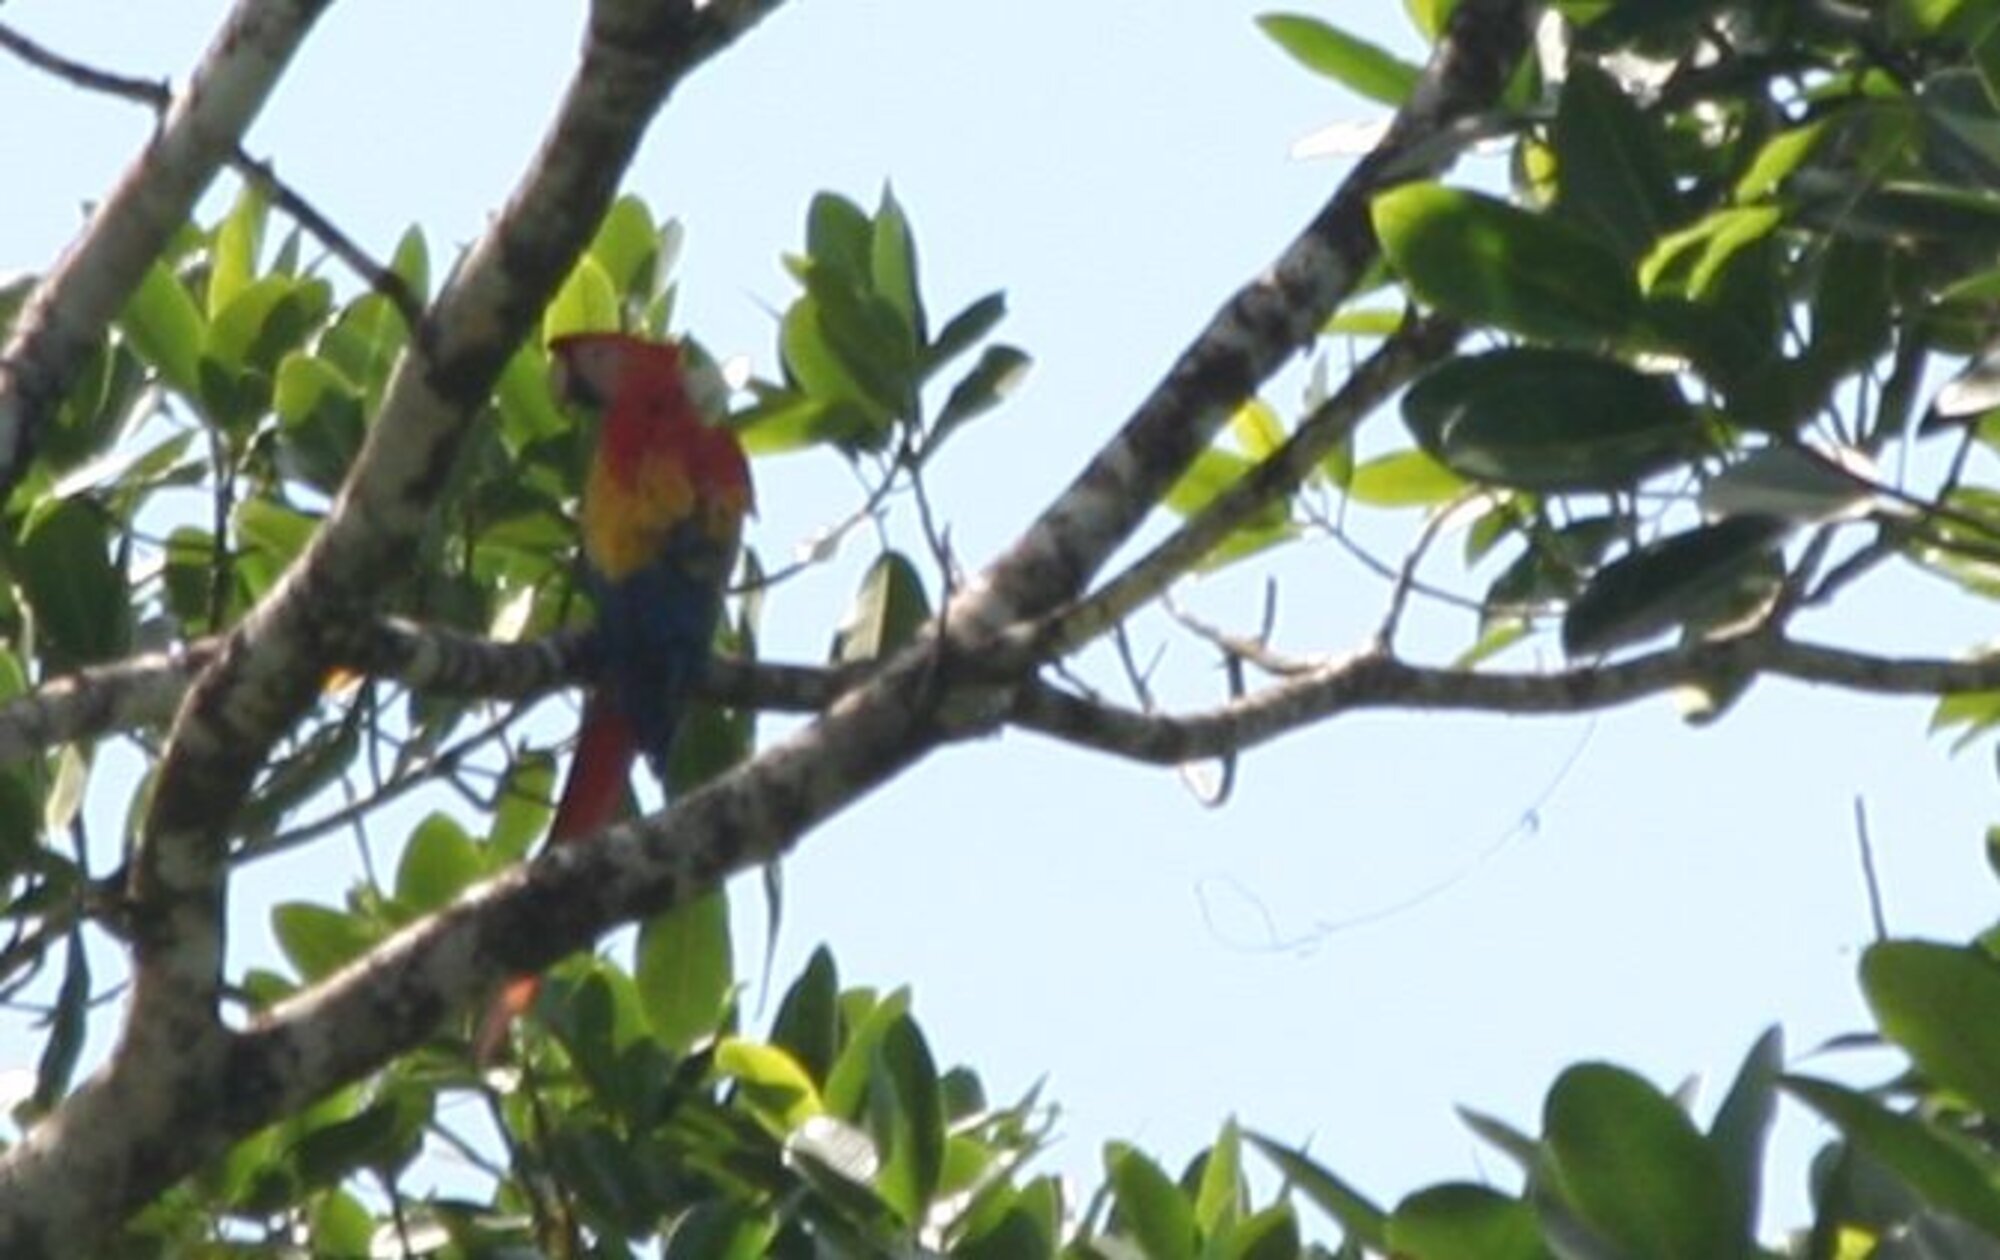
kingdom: Animalia
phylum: Chordata
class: Aves
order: Psittaciformes
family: Psittacidae
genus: Ara
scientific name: Ara macao
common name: Scarlet macaw
